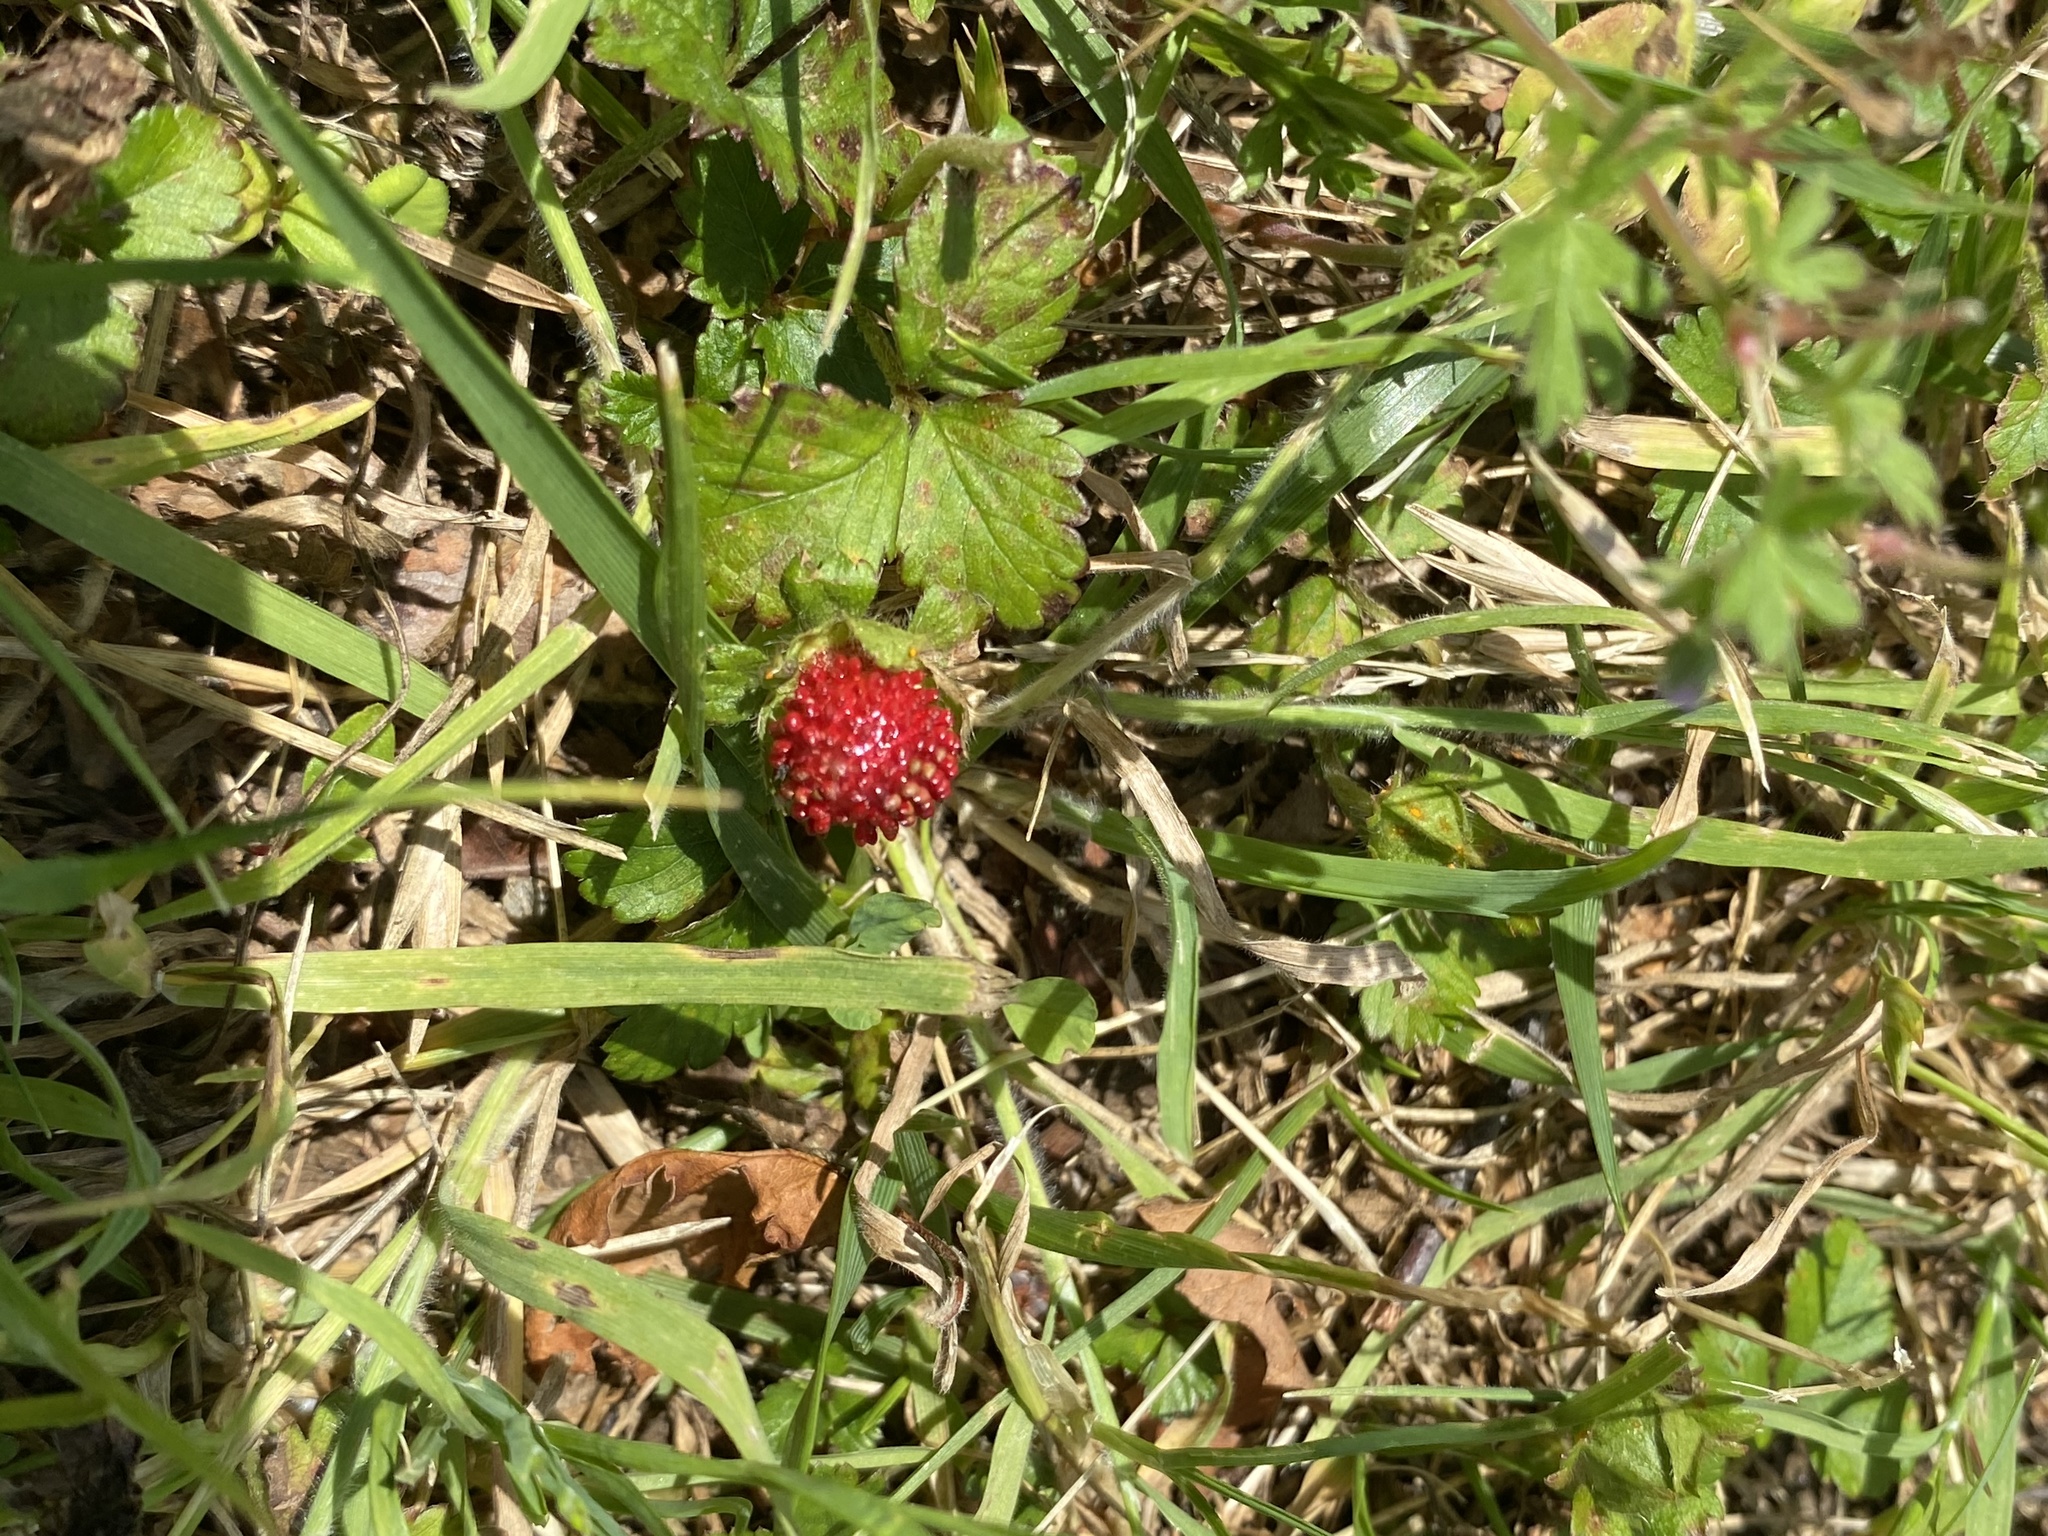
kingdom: Plantae
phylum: Tracheophyta
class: Magnoliopsida
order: Rosales
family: Rosaceae
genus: Potentilla
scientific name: Potentilla indica
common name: Yellow-flowered strawberry
